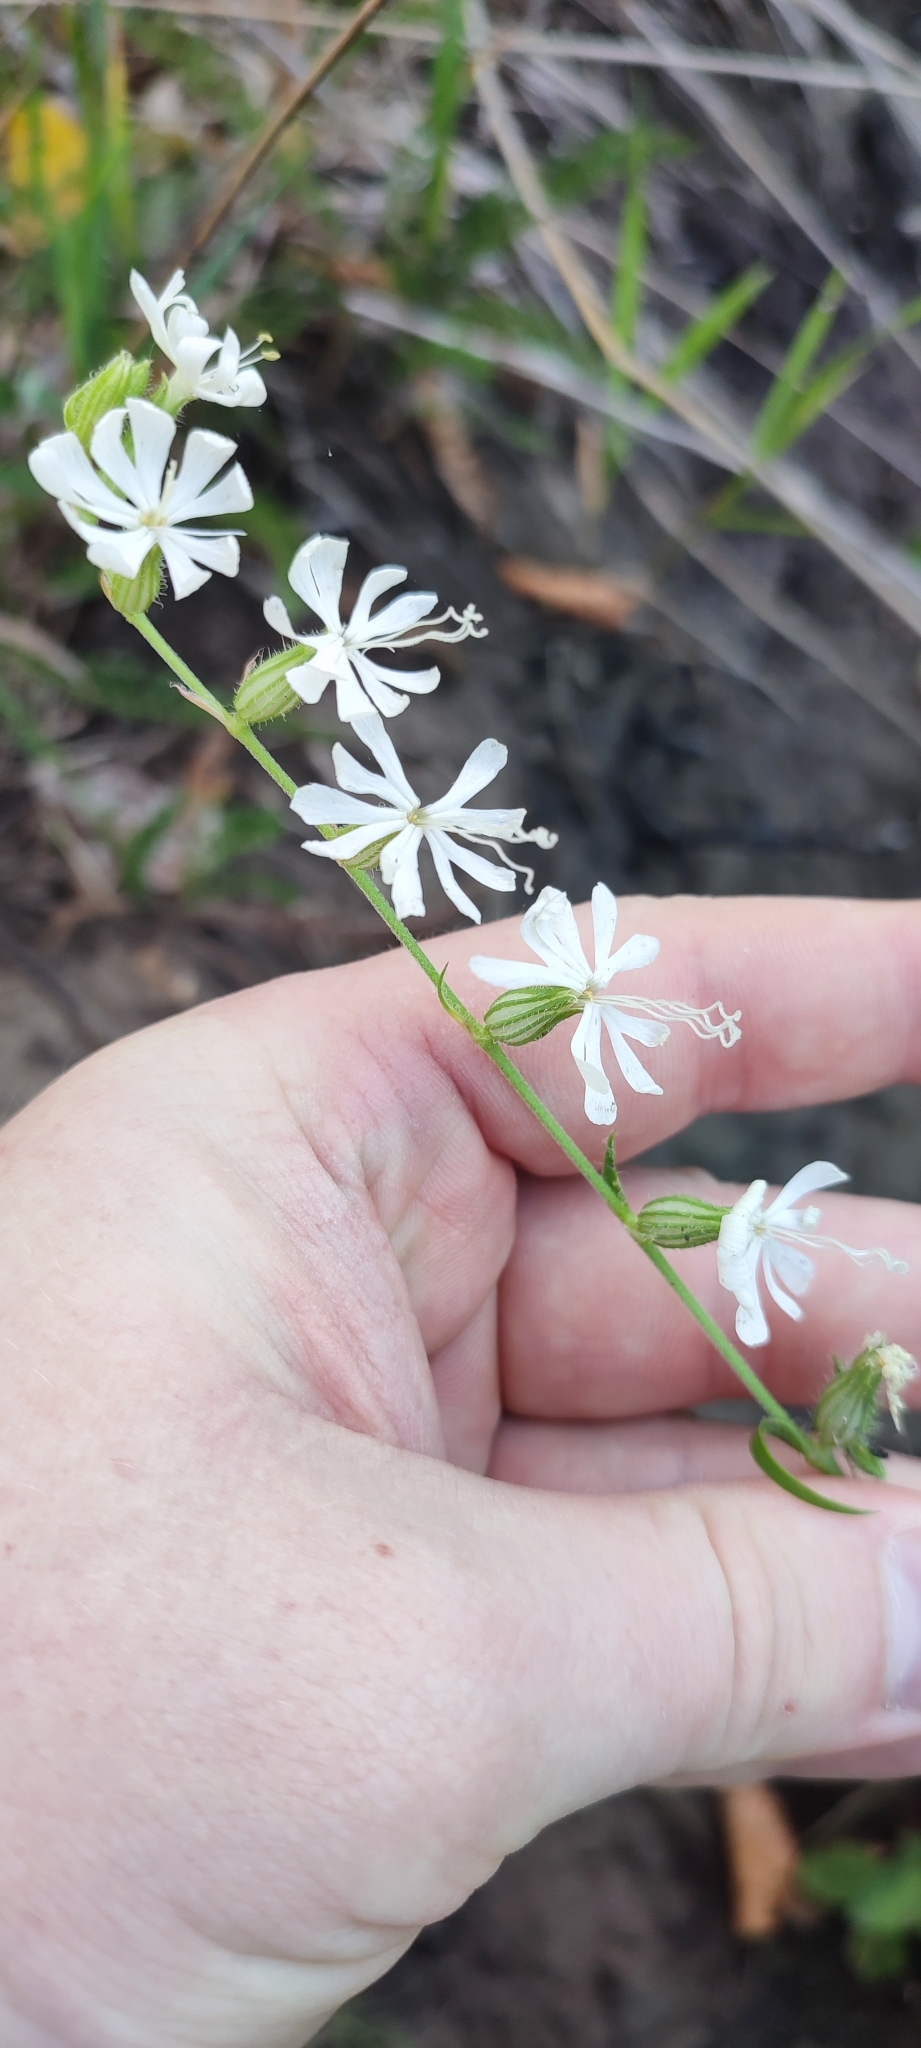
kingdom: Plantae
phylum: Tracheophyta
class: Magnoliopsida
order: Caryophyllales
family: Caryophyllaceae
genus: Silene
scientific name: Silene dichotoma
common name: Forked catchfly
